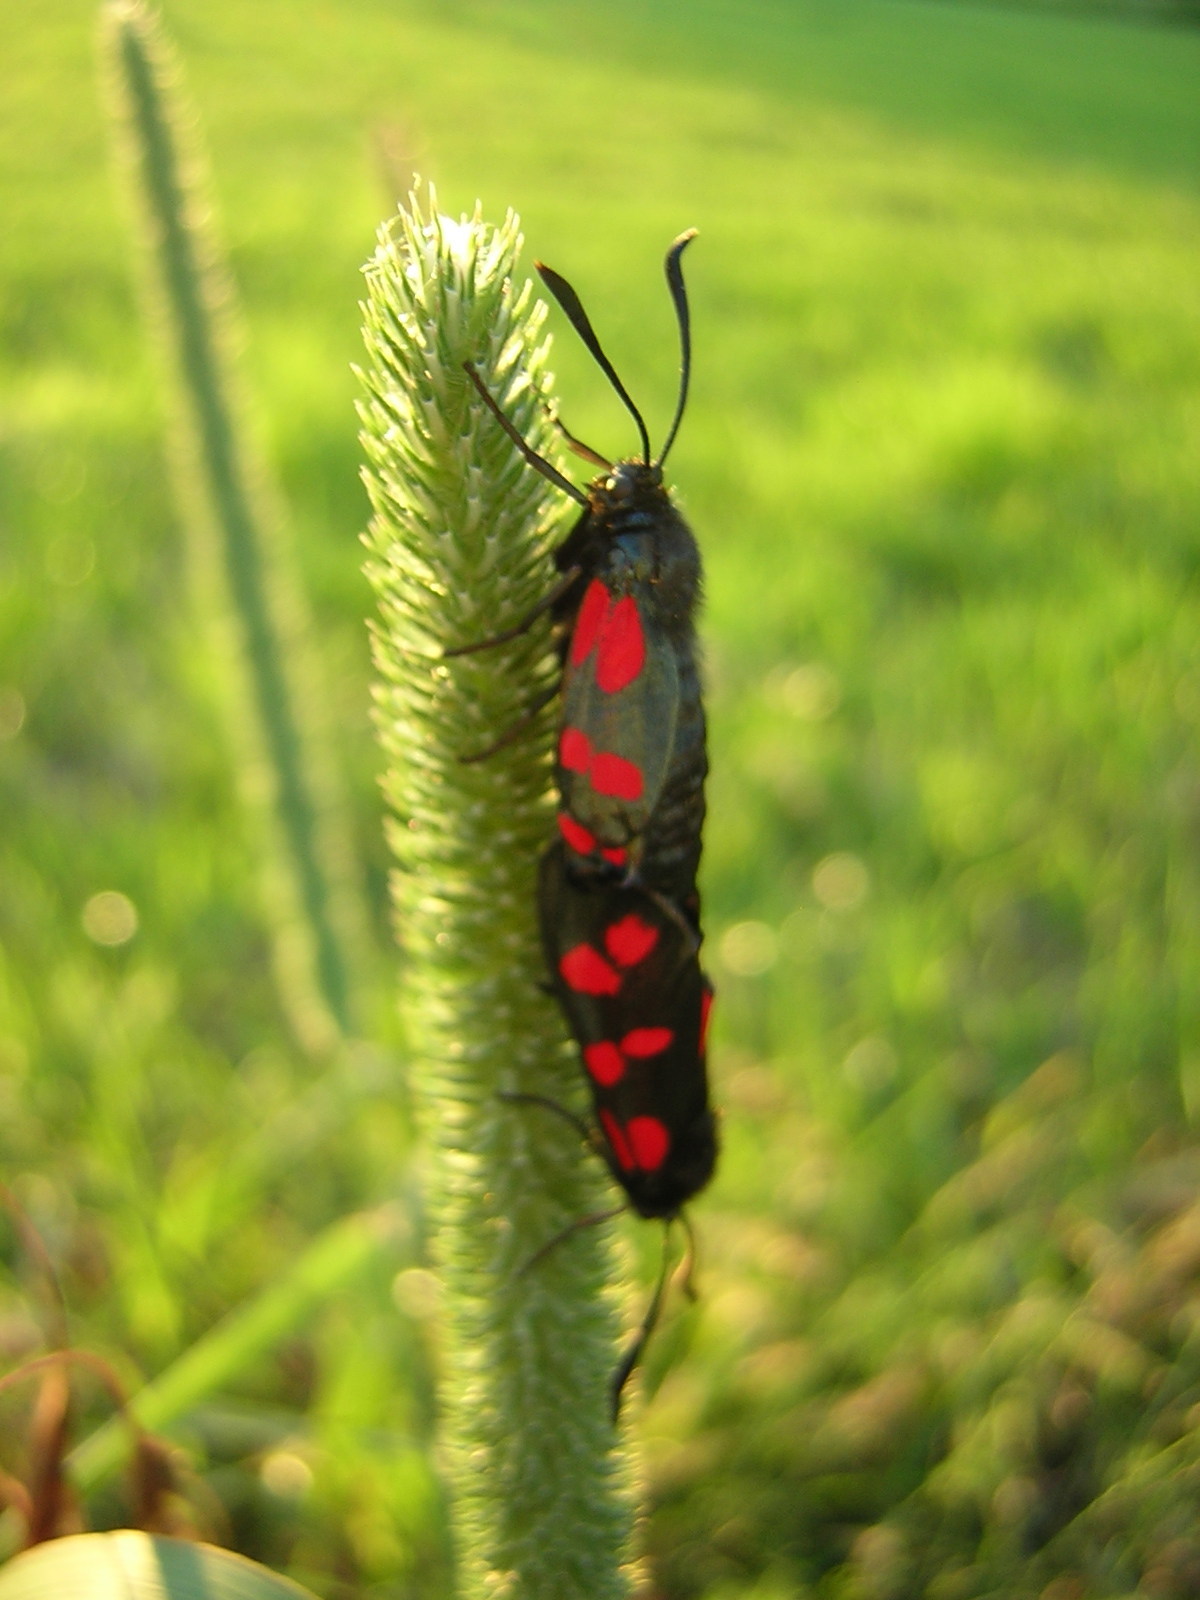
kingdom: Animalia
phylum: Arthropoda
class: Insecta
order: Lepidoptera
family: Zygaenidae
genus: Zygaena
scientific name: Zygaena filipendulae
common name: Six-spot burnet
